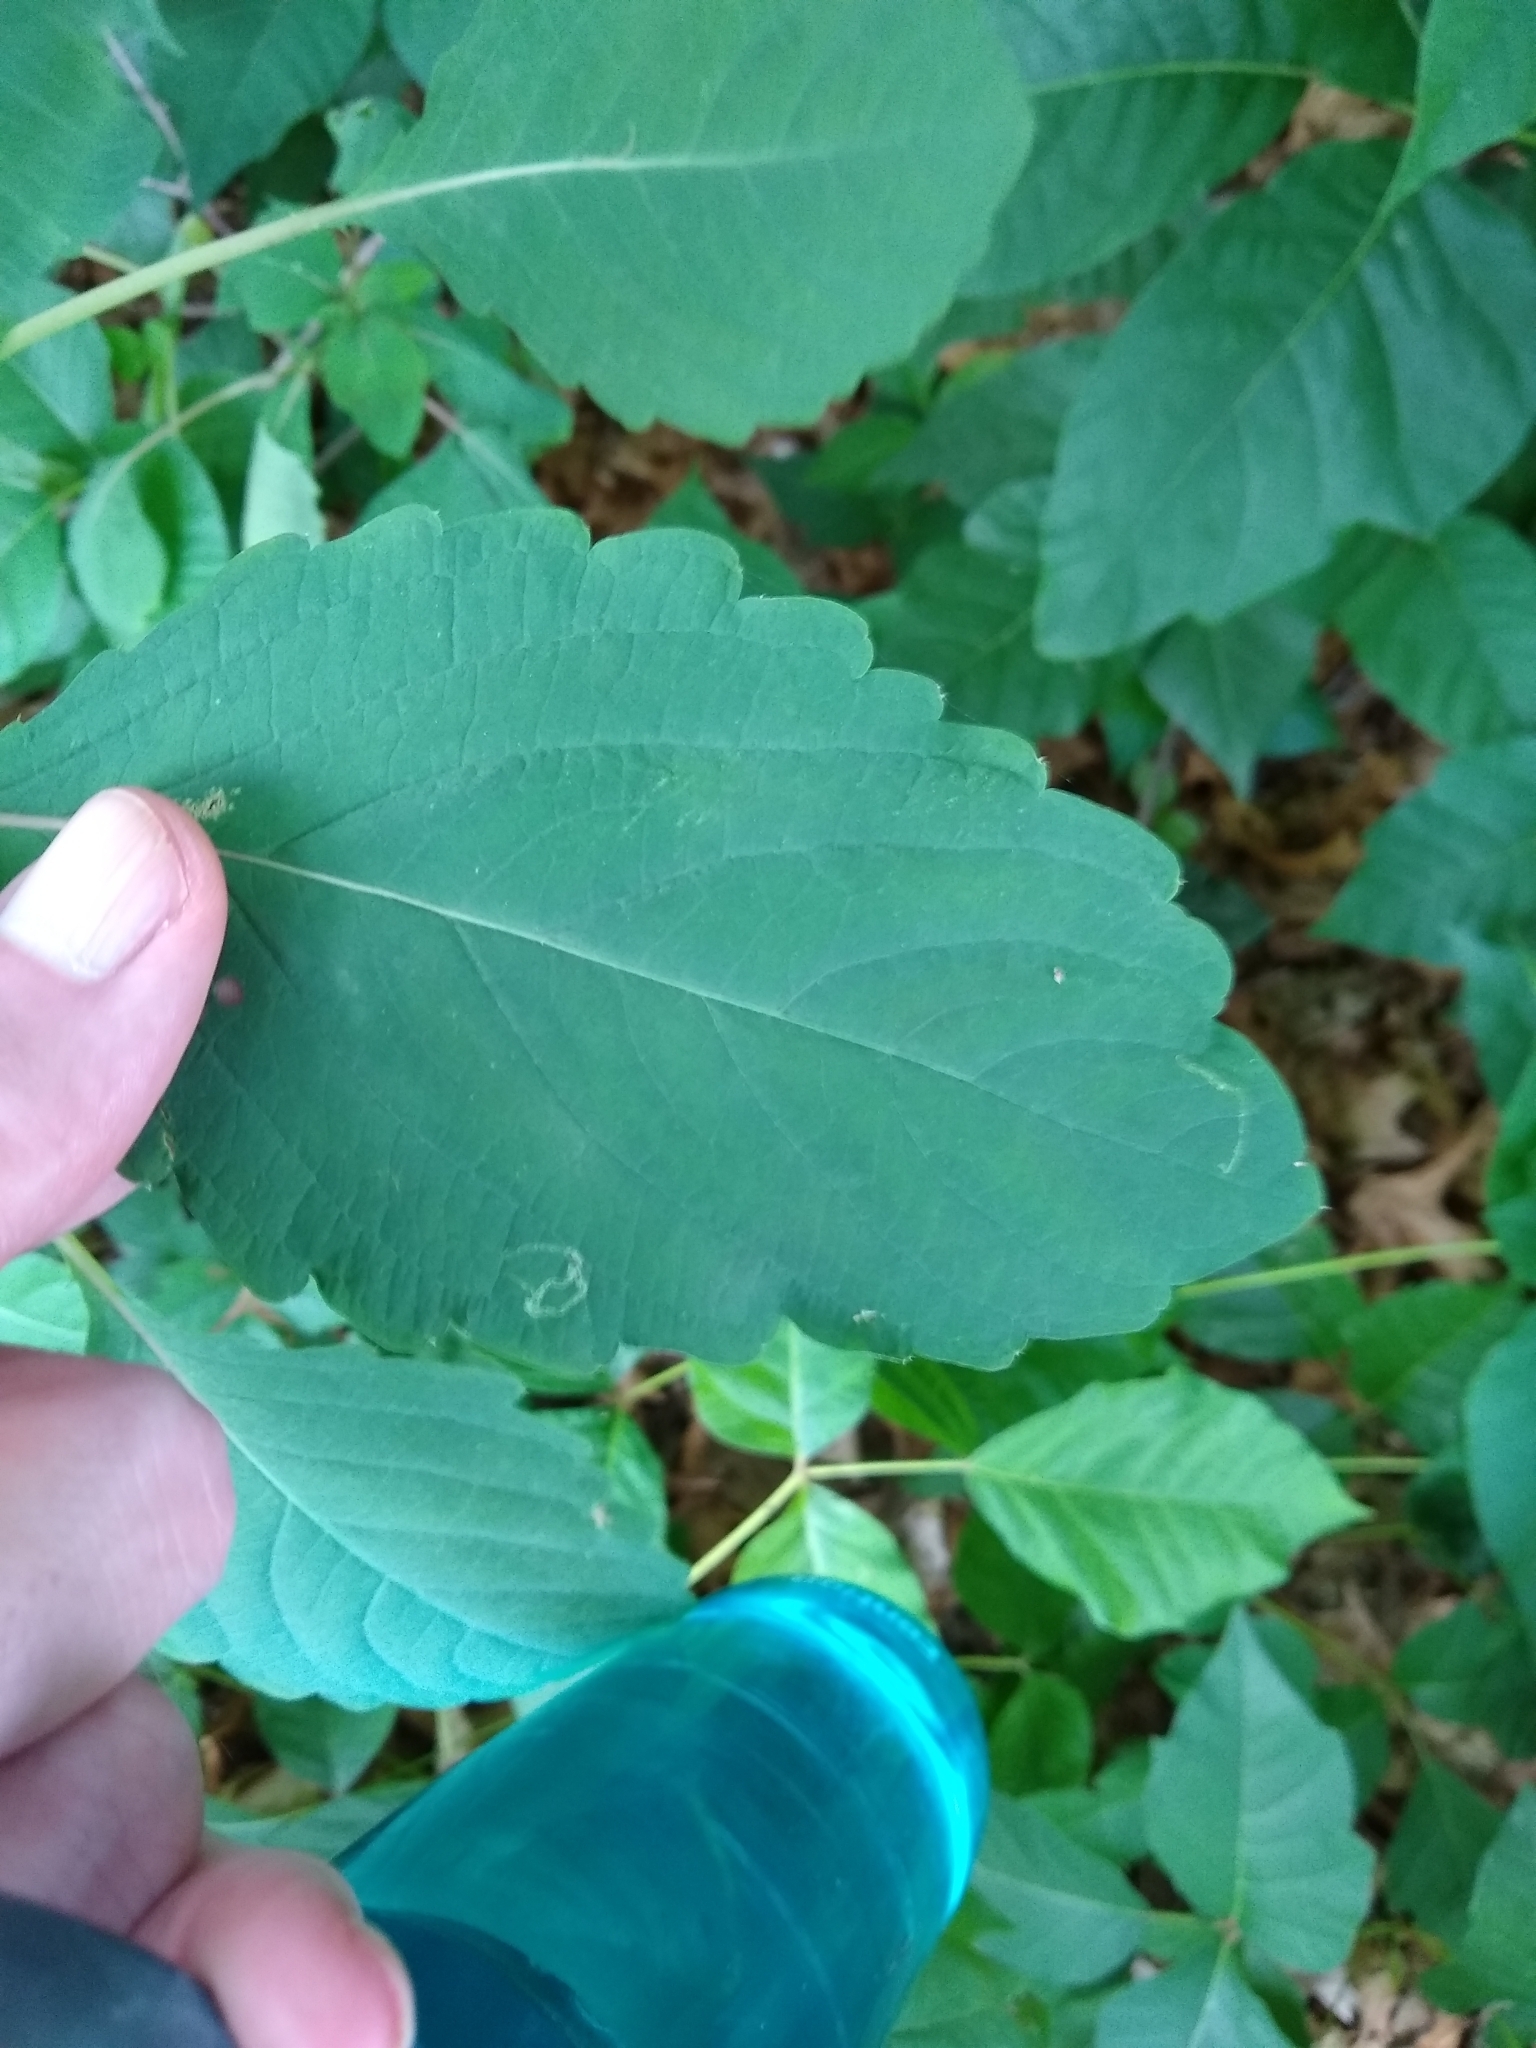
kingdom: Animalia
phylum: Arthropoda
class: Insecta
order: Diptera
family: Agromyzidae
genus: Phytoliriomyza
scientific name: Phytoliriomyza melampyga
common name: Jewelweed leaf-miner fly
